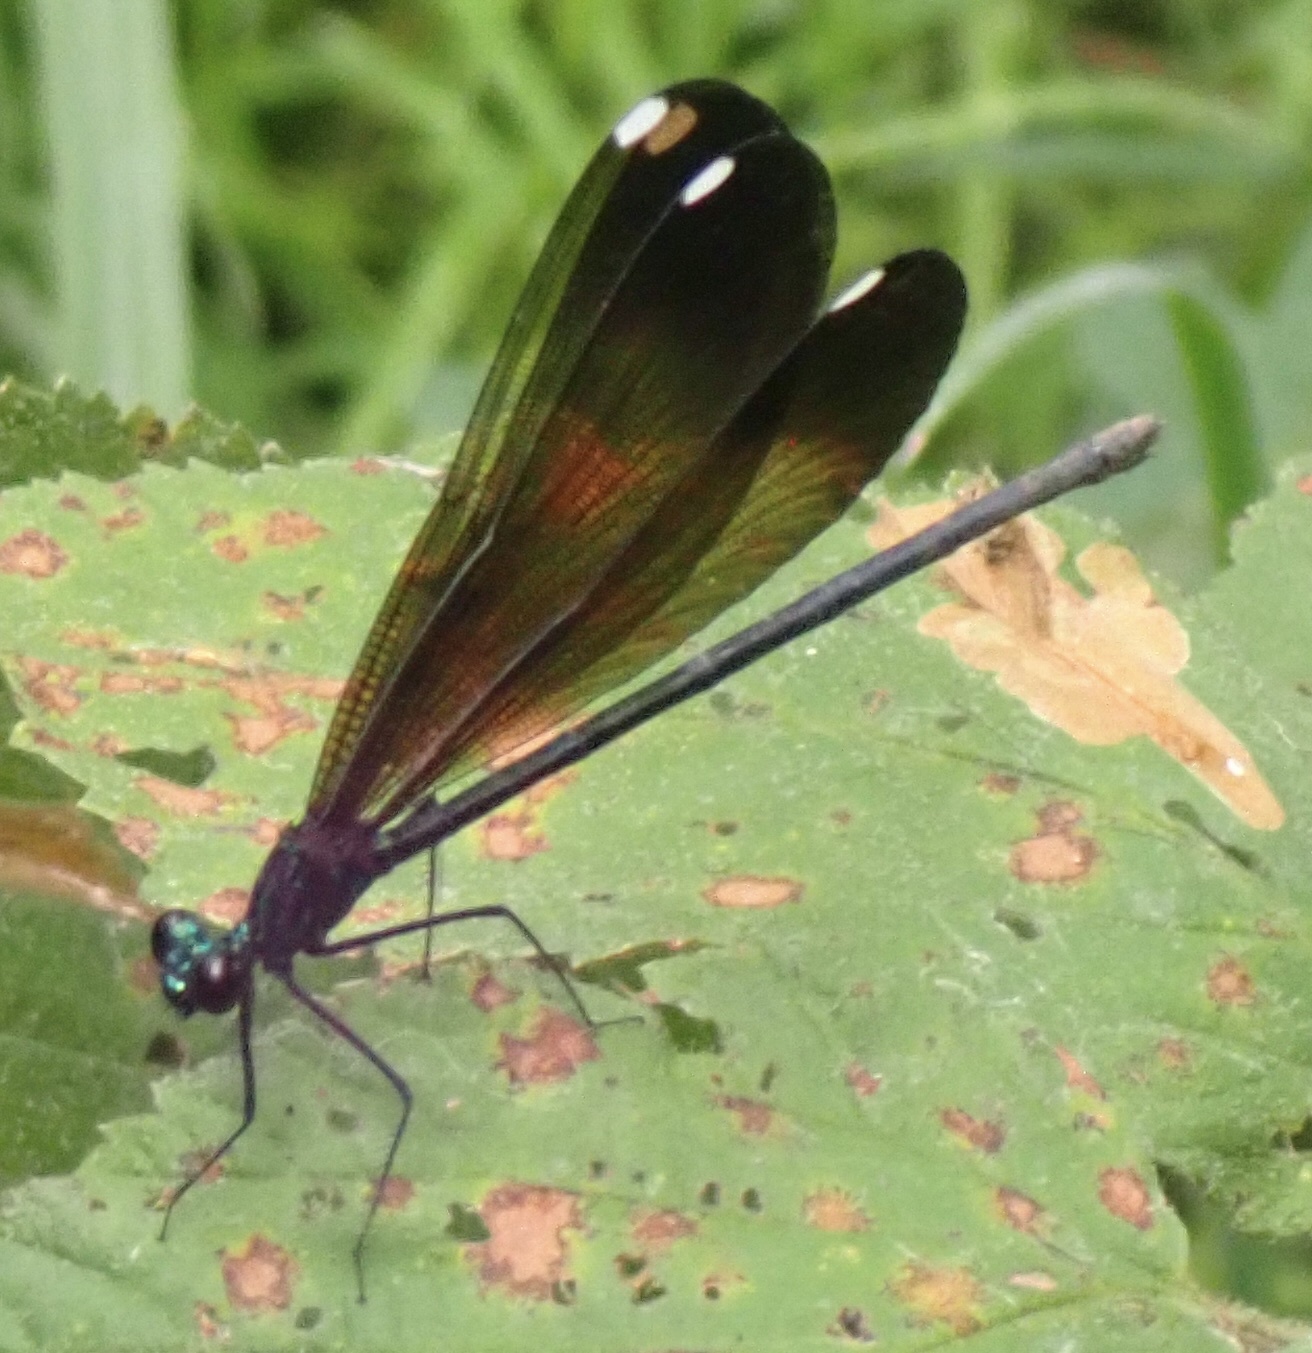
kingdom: Animalia
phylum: Arthropoda
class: Insecta
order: Odonata
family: Calopterygidae
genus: Calopteryx
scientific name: Calopteryx maculata
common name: Ebony jewelwing
